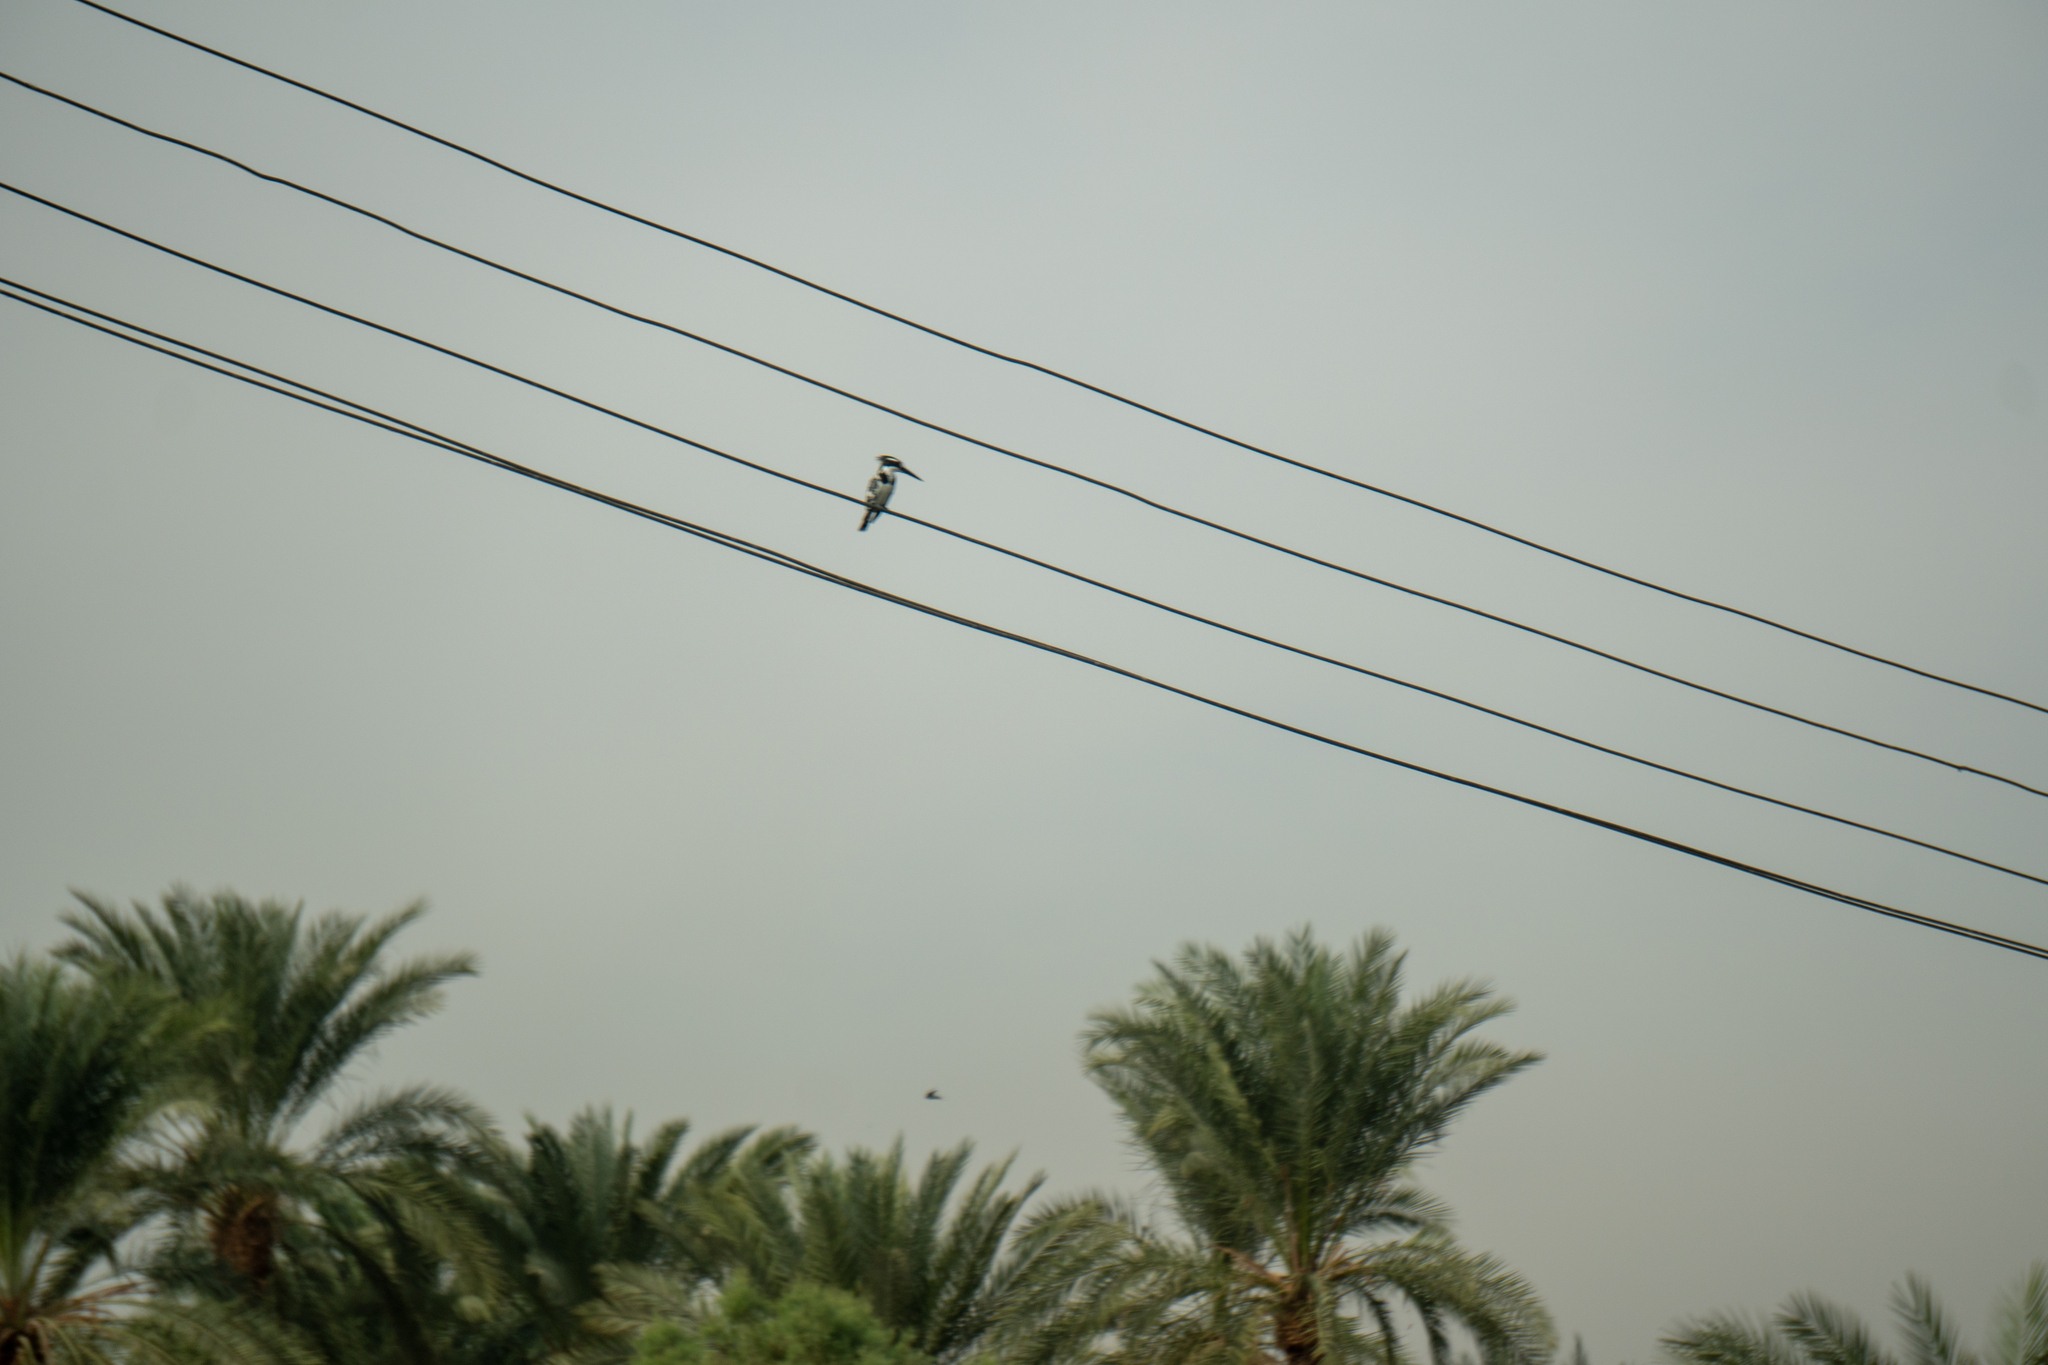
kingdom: Animalia
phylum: Chordata
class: Aves
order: Coraciiformes
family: Alcedinidae
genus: Ceryle
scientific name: Ceryle rudis
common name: Pied kingfisher
